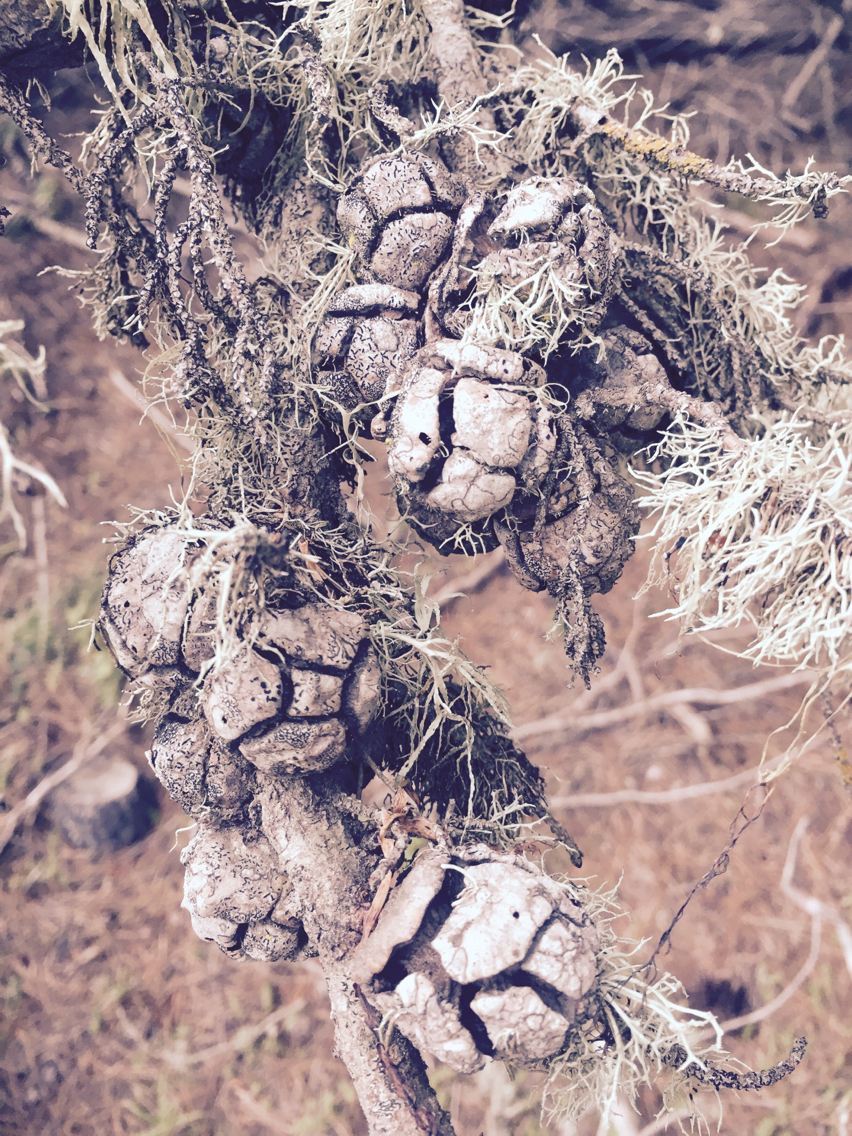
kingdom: Plantae
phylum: Tracheophyta
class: Pinopsida
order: Pinales
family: Cupressaceae
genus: Cupressus
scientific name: Cupressus macrocarpa
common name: Monterey cypress
